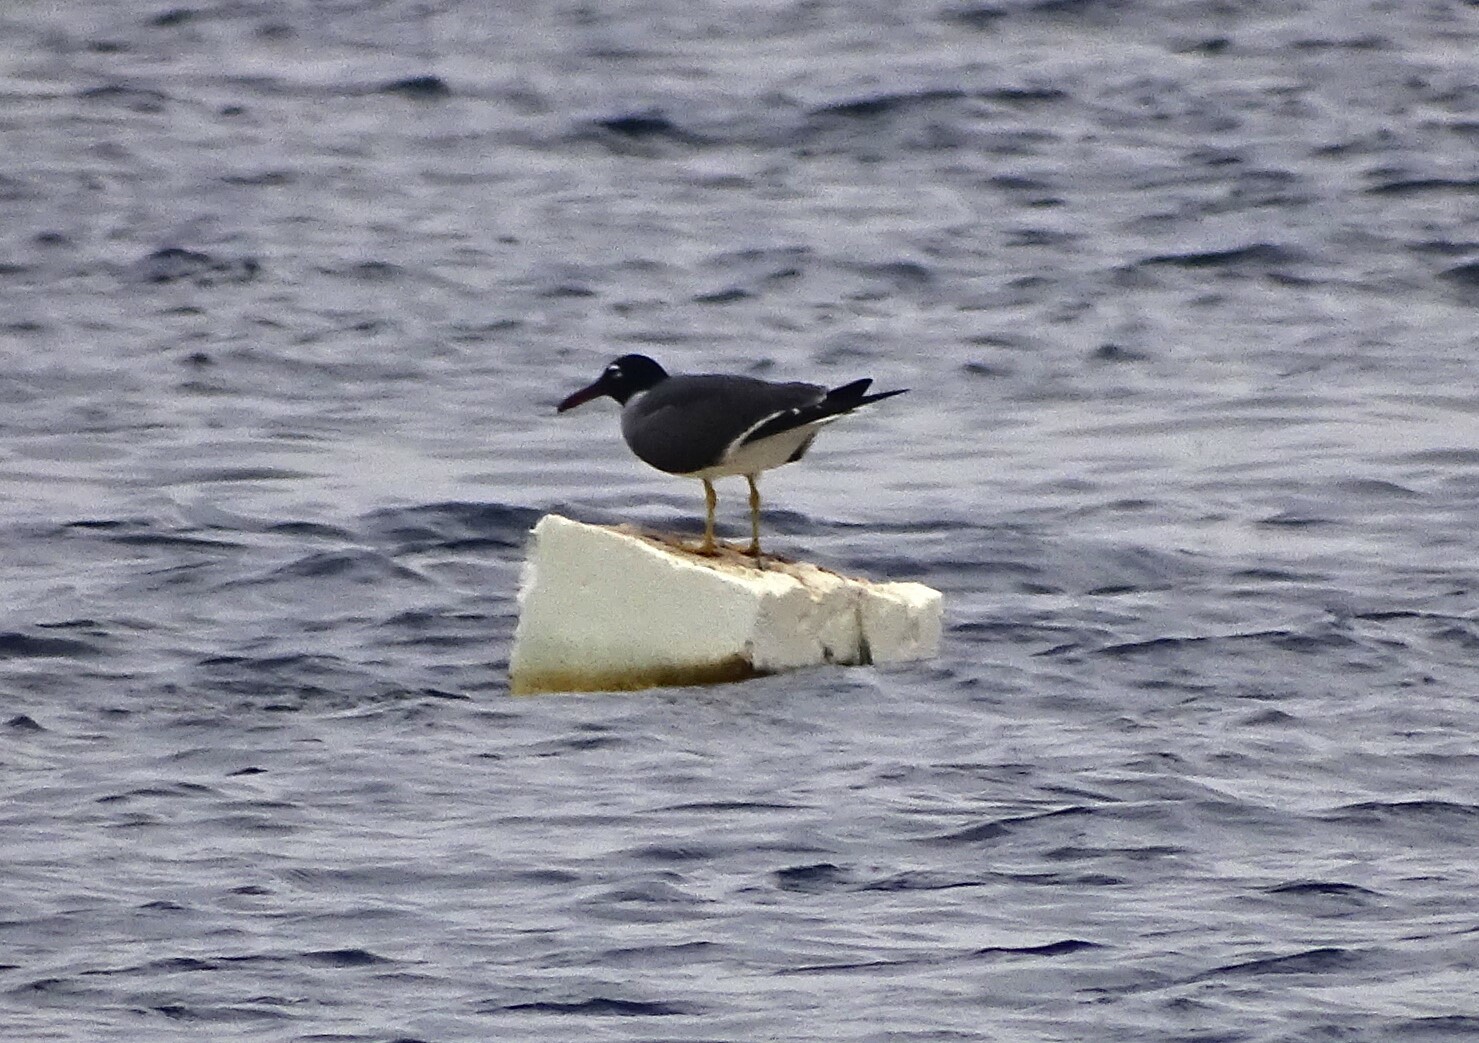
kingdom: Animalia
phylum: Chordata
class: Aves
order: Charadriiformes
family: Laridae
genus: Ichthyaetus
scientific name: Ichthyaetus leucophthalmus
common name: White-eyed gull
